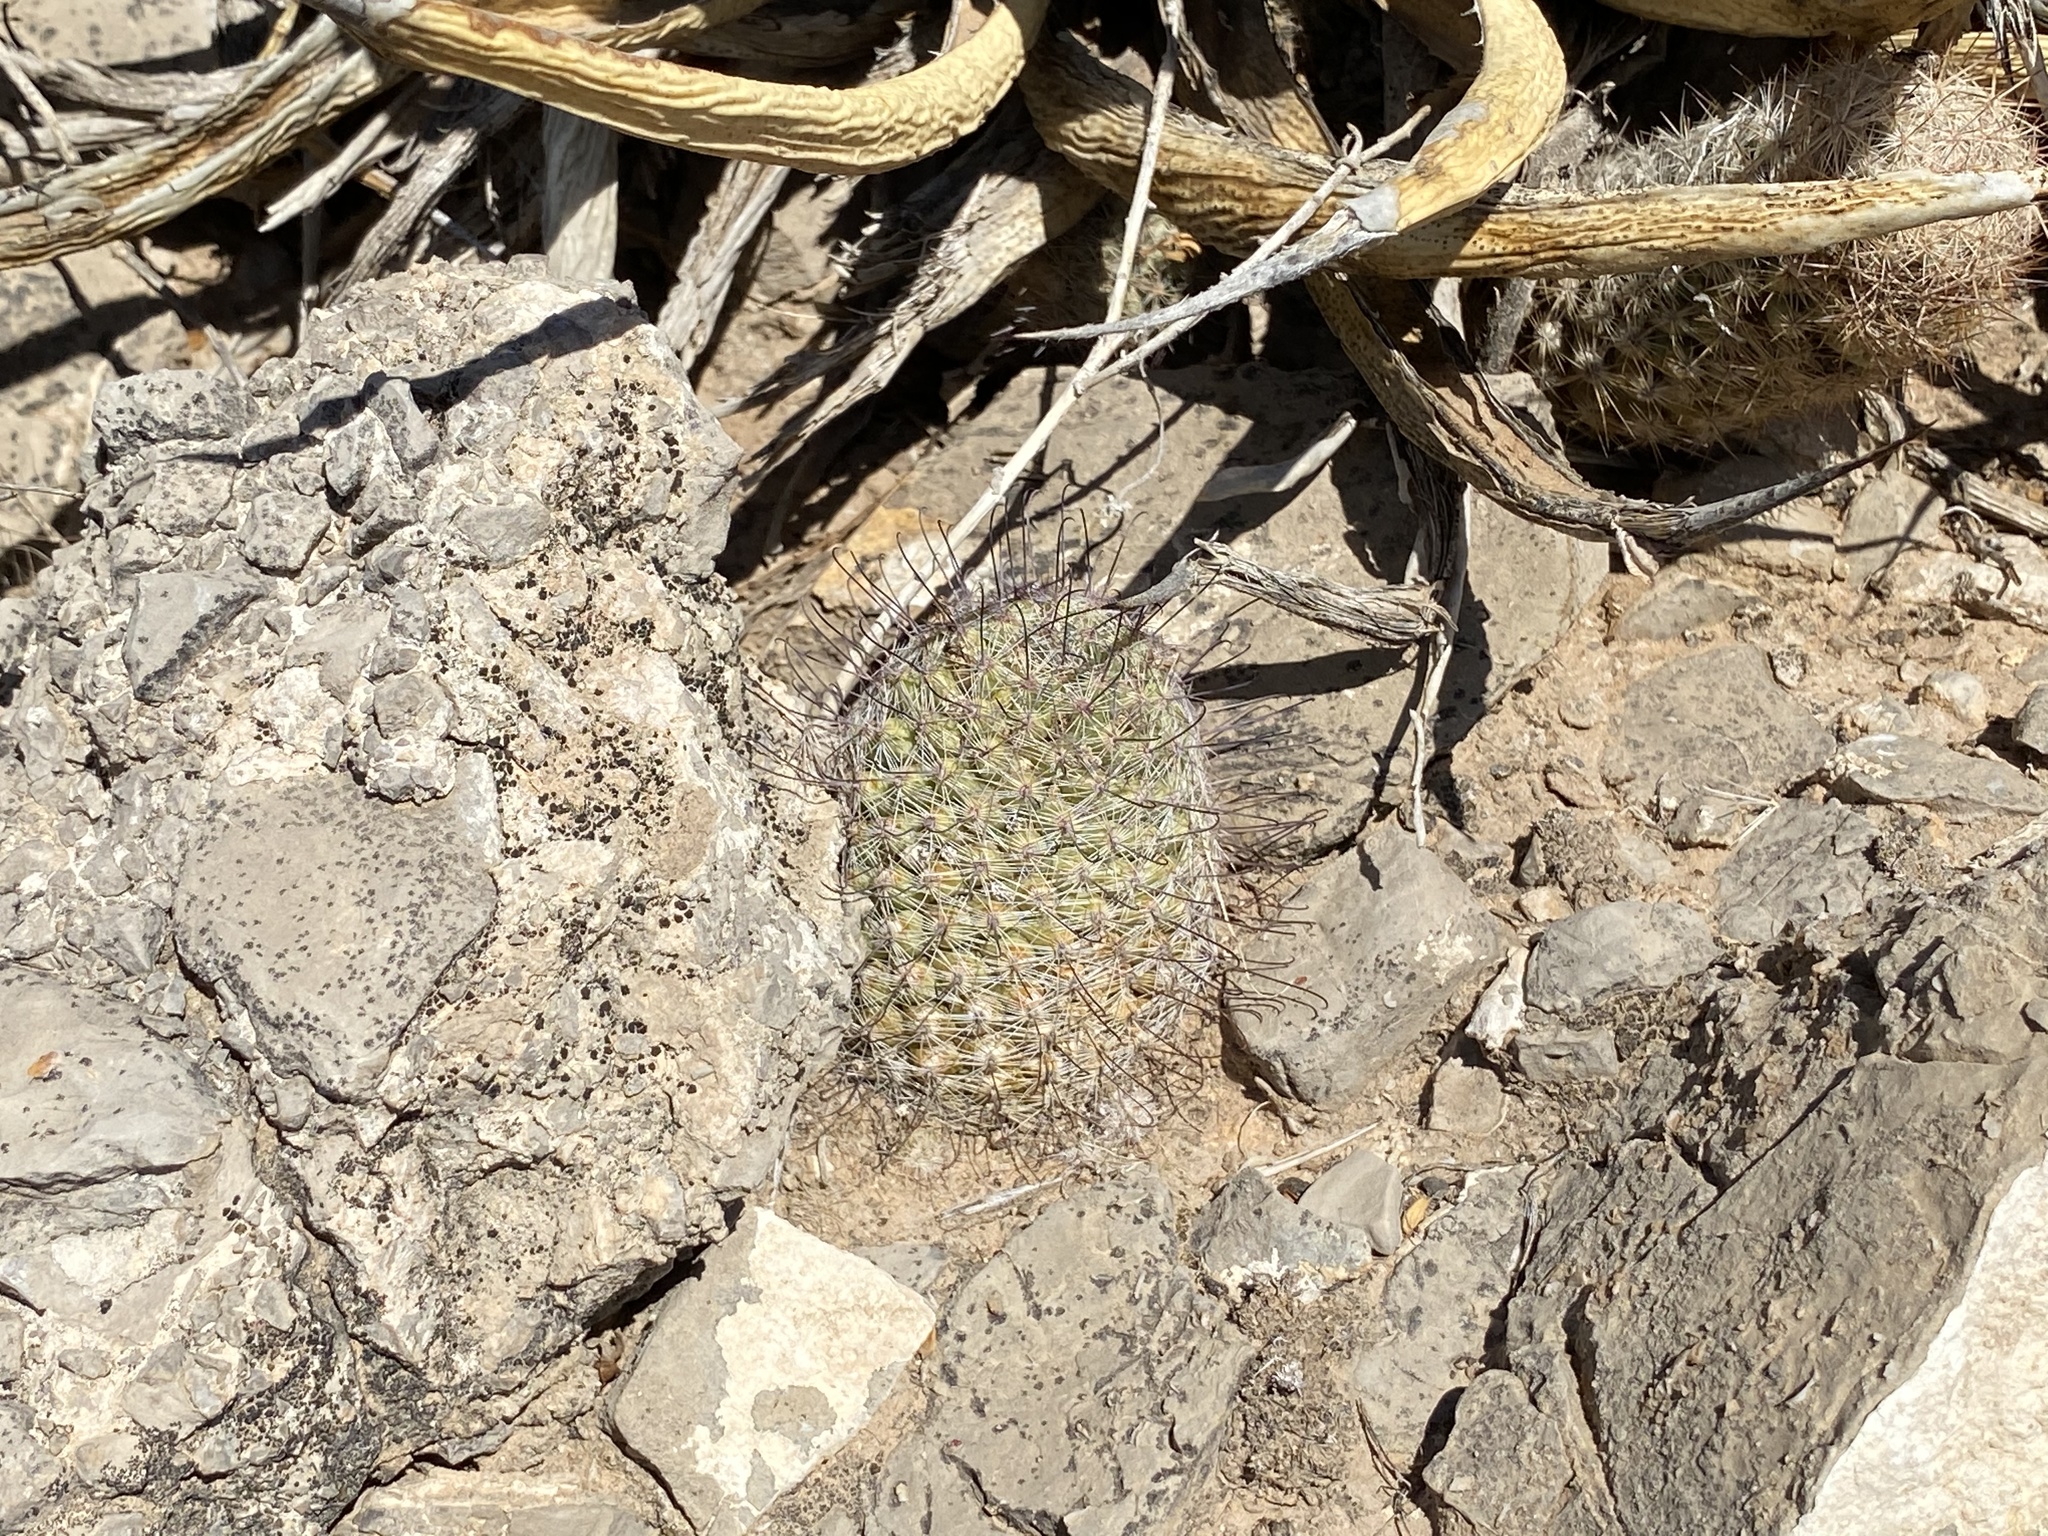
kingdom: Plantae
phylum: Tracheophyta
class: Magnoliopsida
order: Caryophyllales
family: Cactaceae
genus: Cochemiea
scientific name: Cochemiea grahamii
